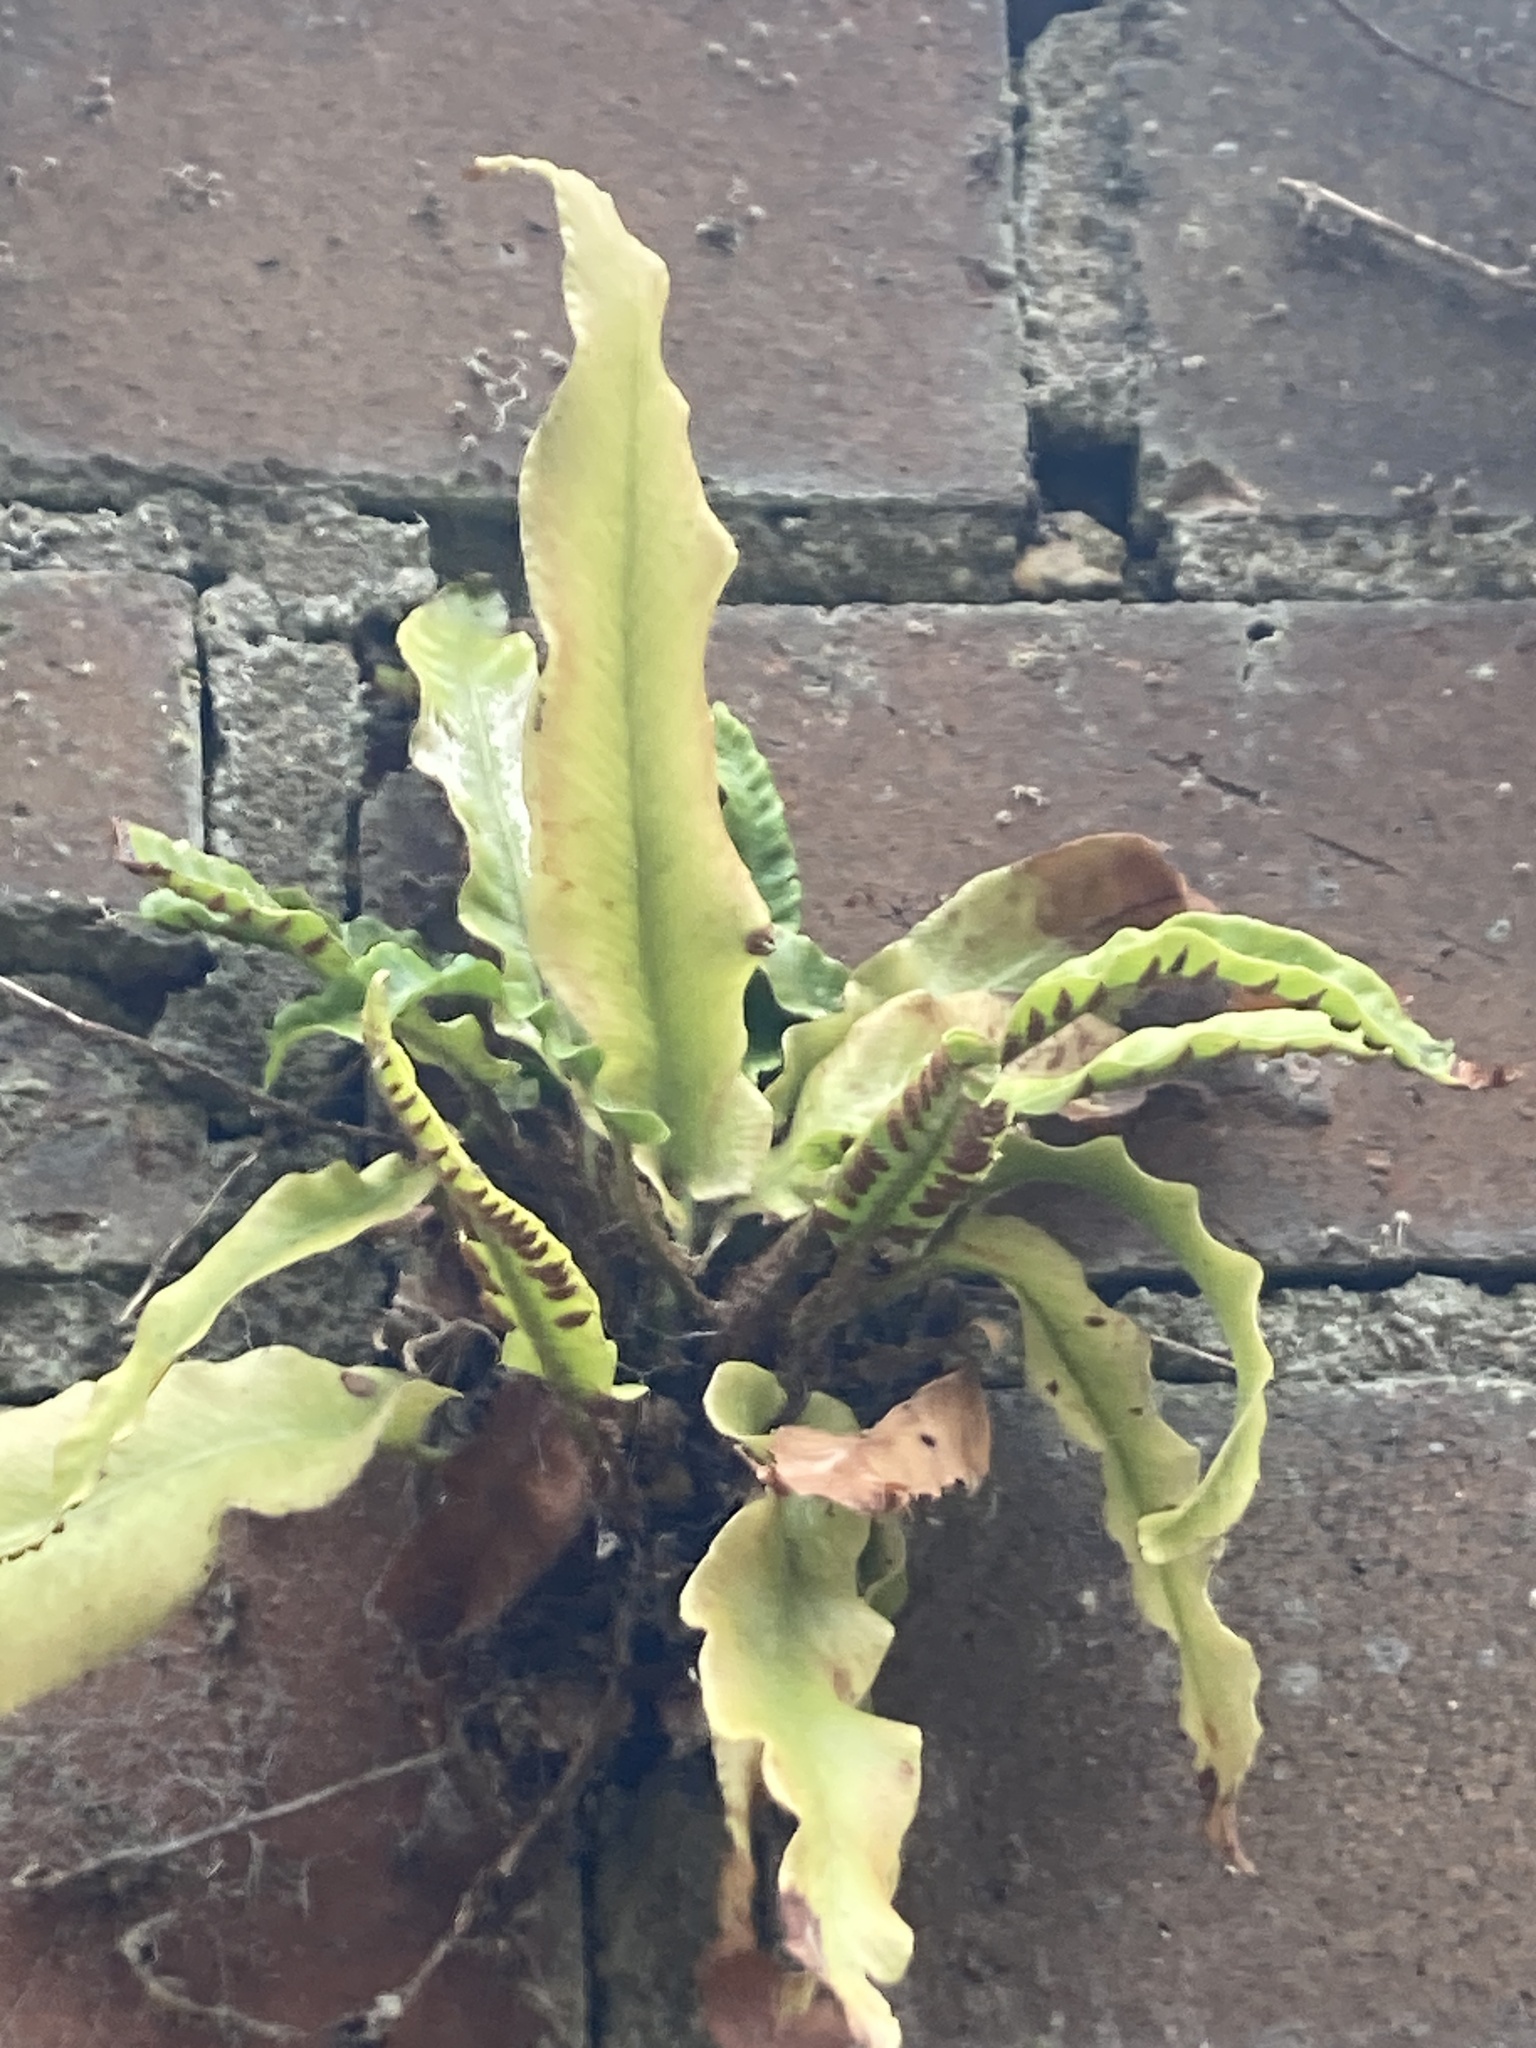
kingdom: Plantae
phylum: Tracheophyta
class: Polypodiopsida
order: Polypodiales
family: Aspleniaceae
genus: Asplenium
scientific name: Asplenium scolopendrium
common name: Hart's-tongue fern
